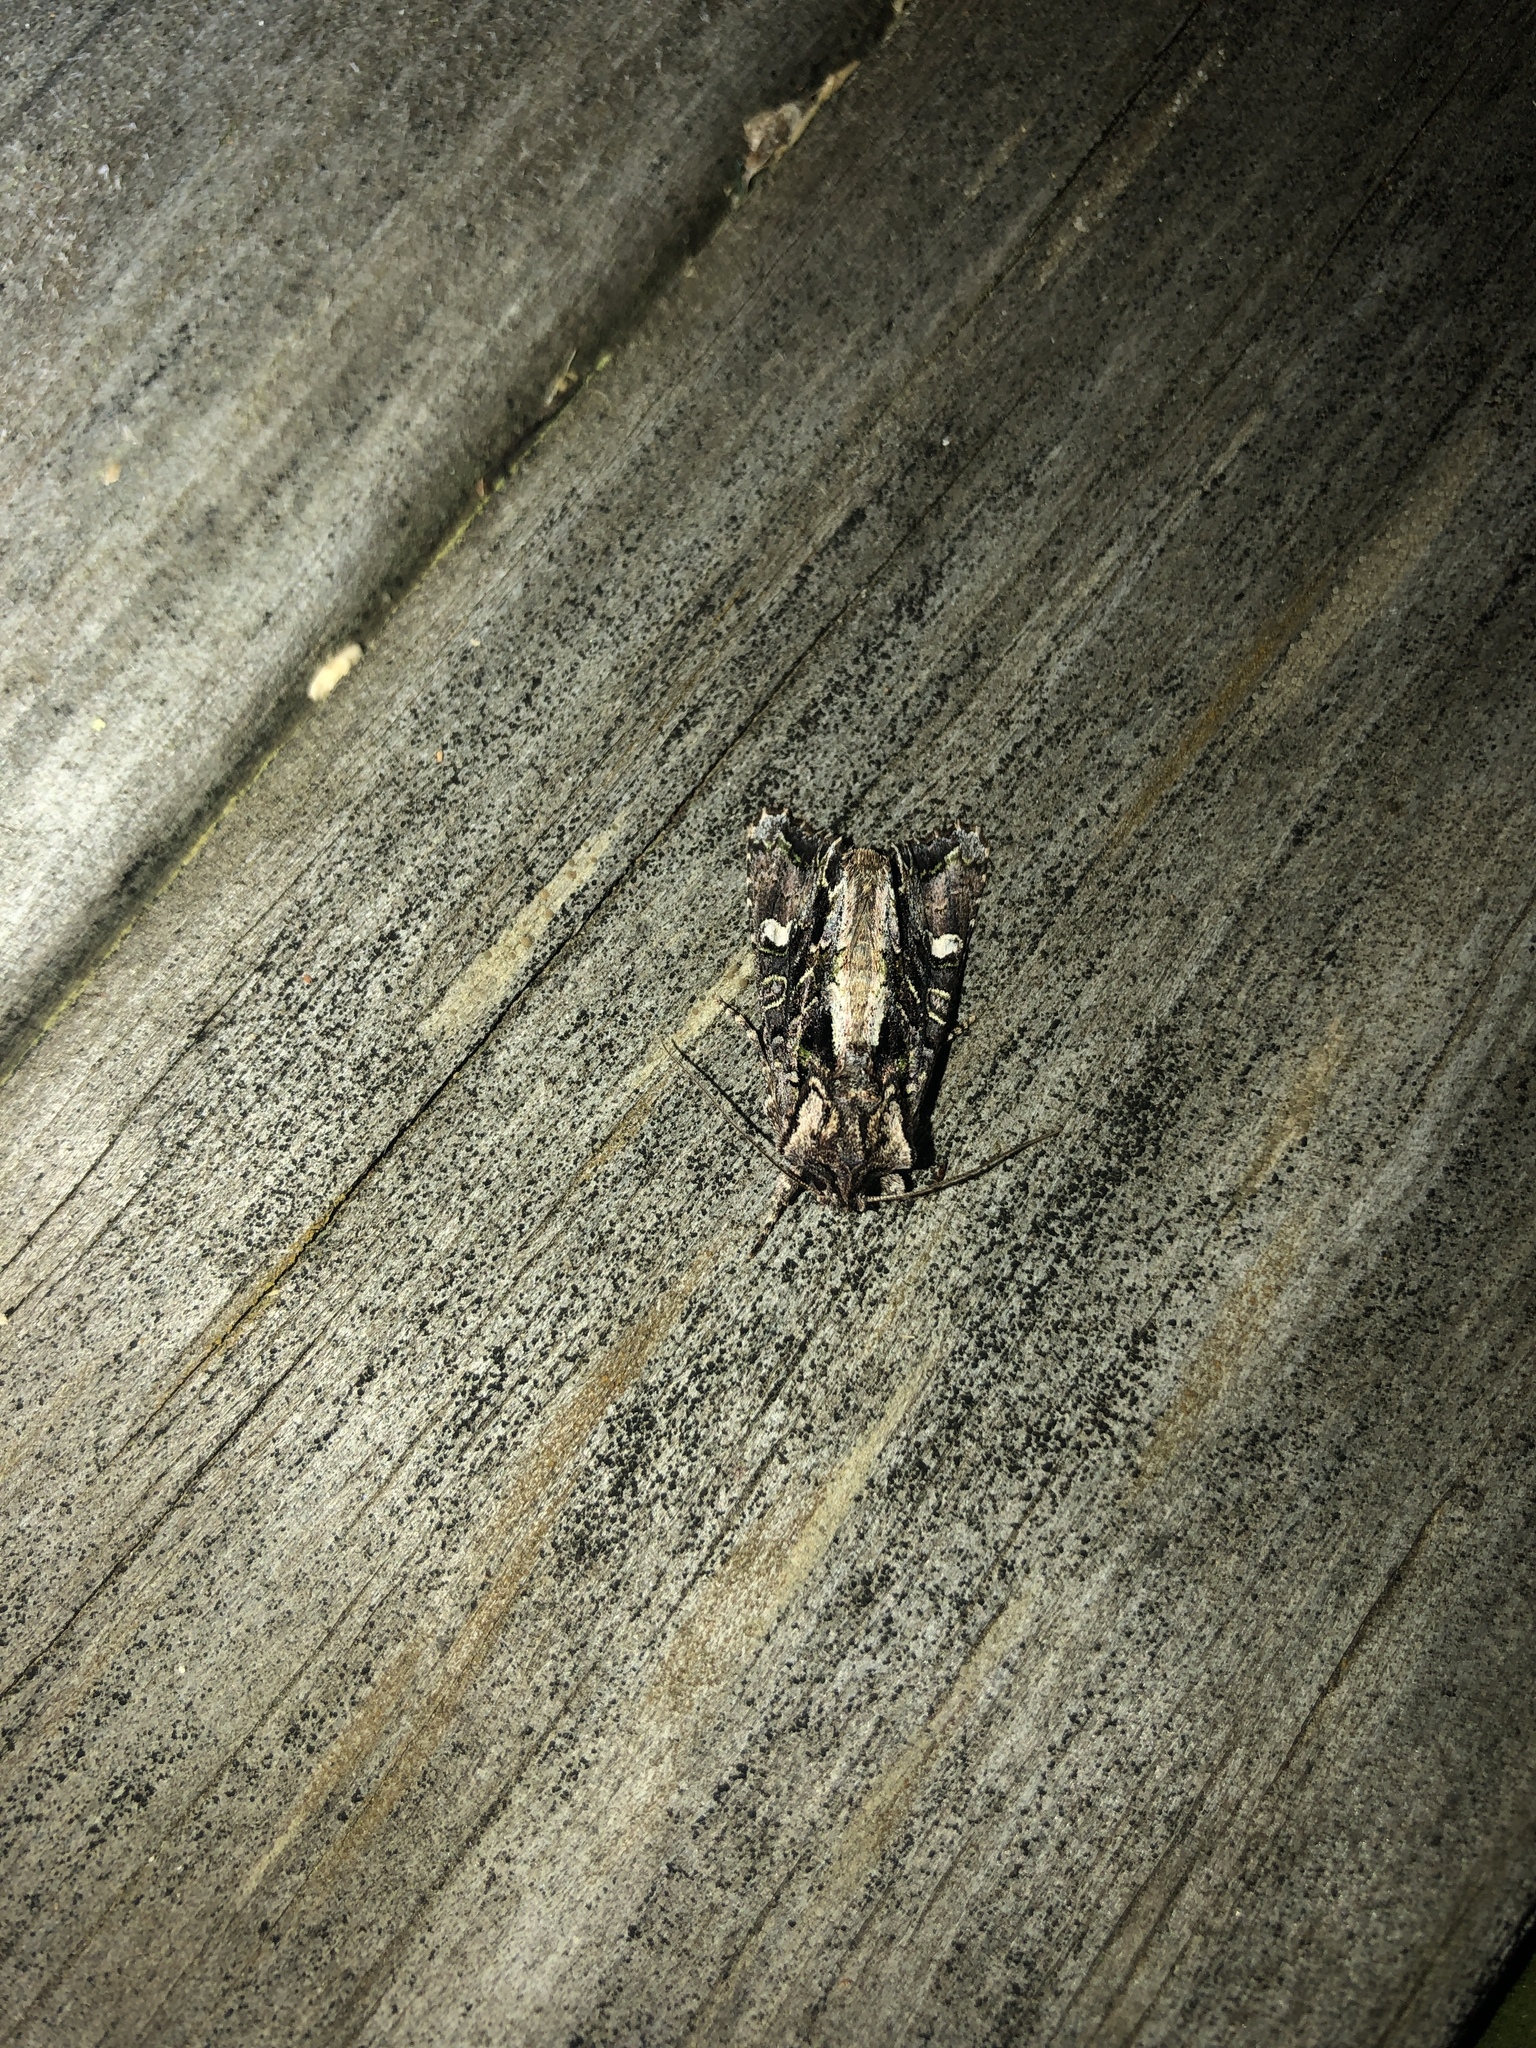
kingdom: Animalia
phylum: Arthropoda
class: Insecta
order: Lepidoptera
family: Noctuidae
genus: Ichneutica
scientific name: Ichneutica insignis
